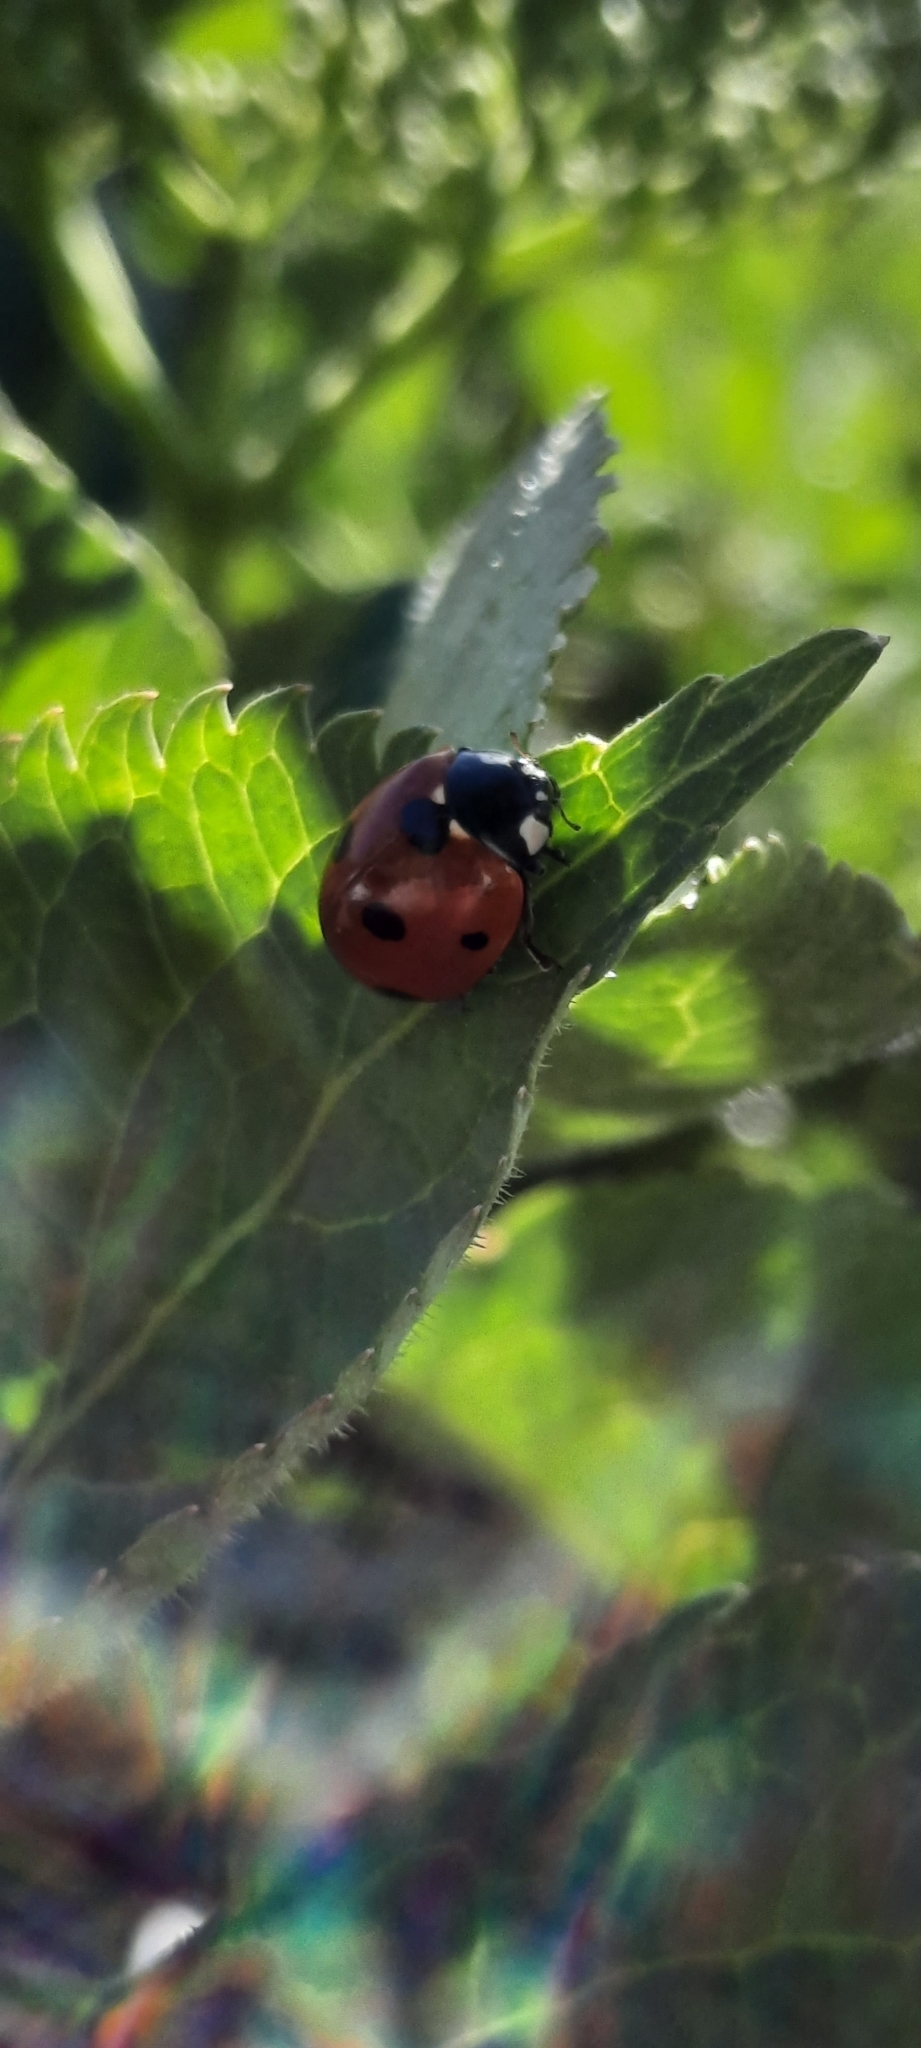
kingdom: Animalia
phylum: Arthropoda
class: Insecta
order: Coleoptera
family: Coccinellidae
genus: Coccinella
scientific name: Coccinella septempunctata
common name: Sevenspotted lady beetle
